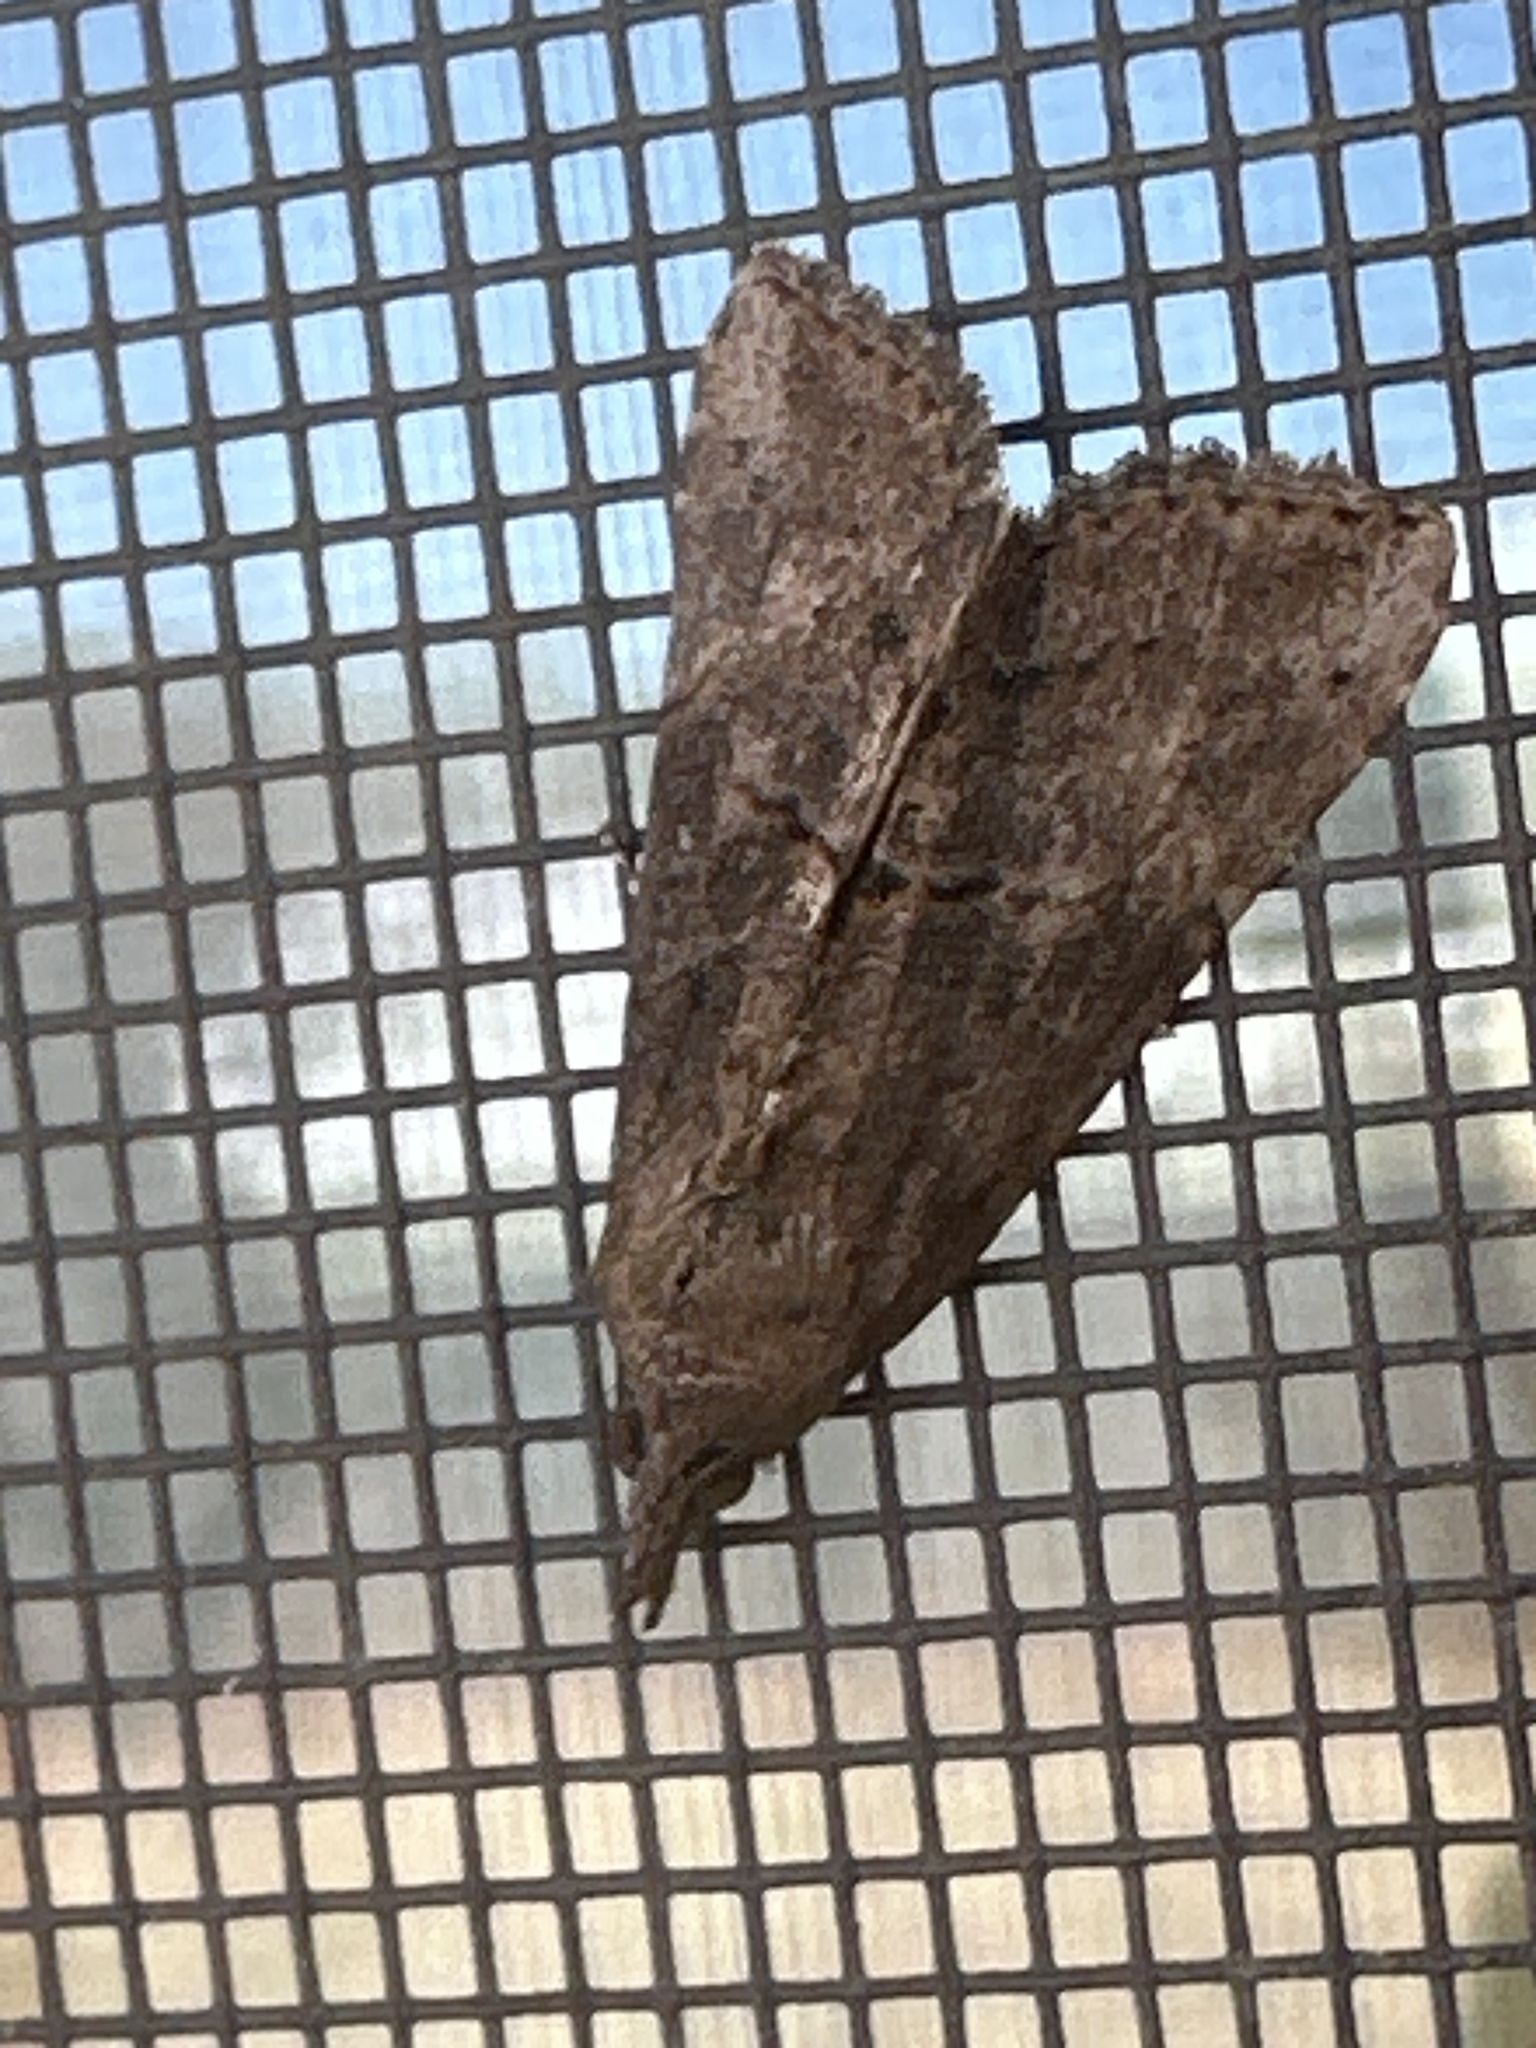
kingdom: Animalia
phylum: Arthropoda
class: Insecta
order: Lepidoptera
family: Erebidae
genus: Hypena
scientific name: Hypena scabra
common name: Green cloverworm
